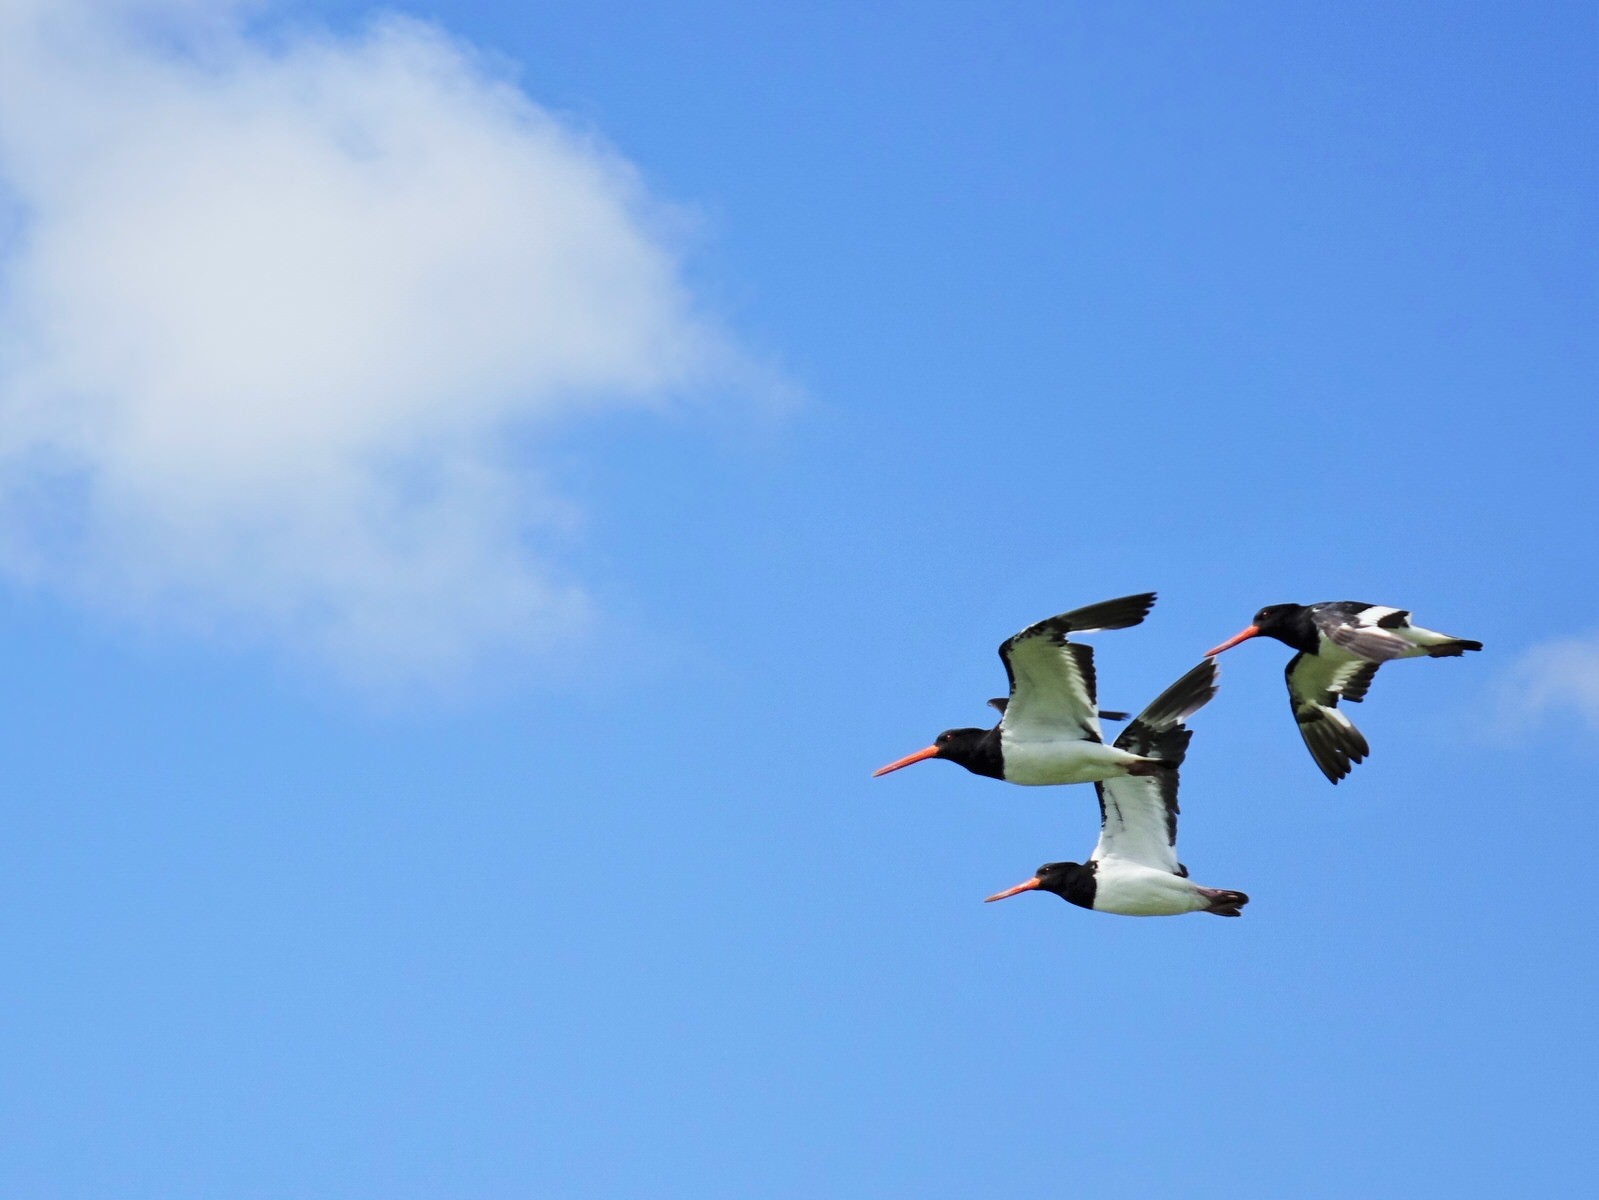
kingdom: Animalia
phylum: Chordata
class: Aves
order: Charadriiformes
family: Haematopodidae
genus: Haematopus
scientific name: Haematopus finschi
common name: South island oystercatcher
